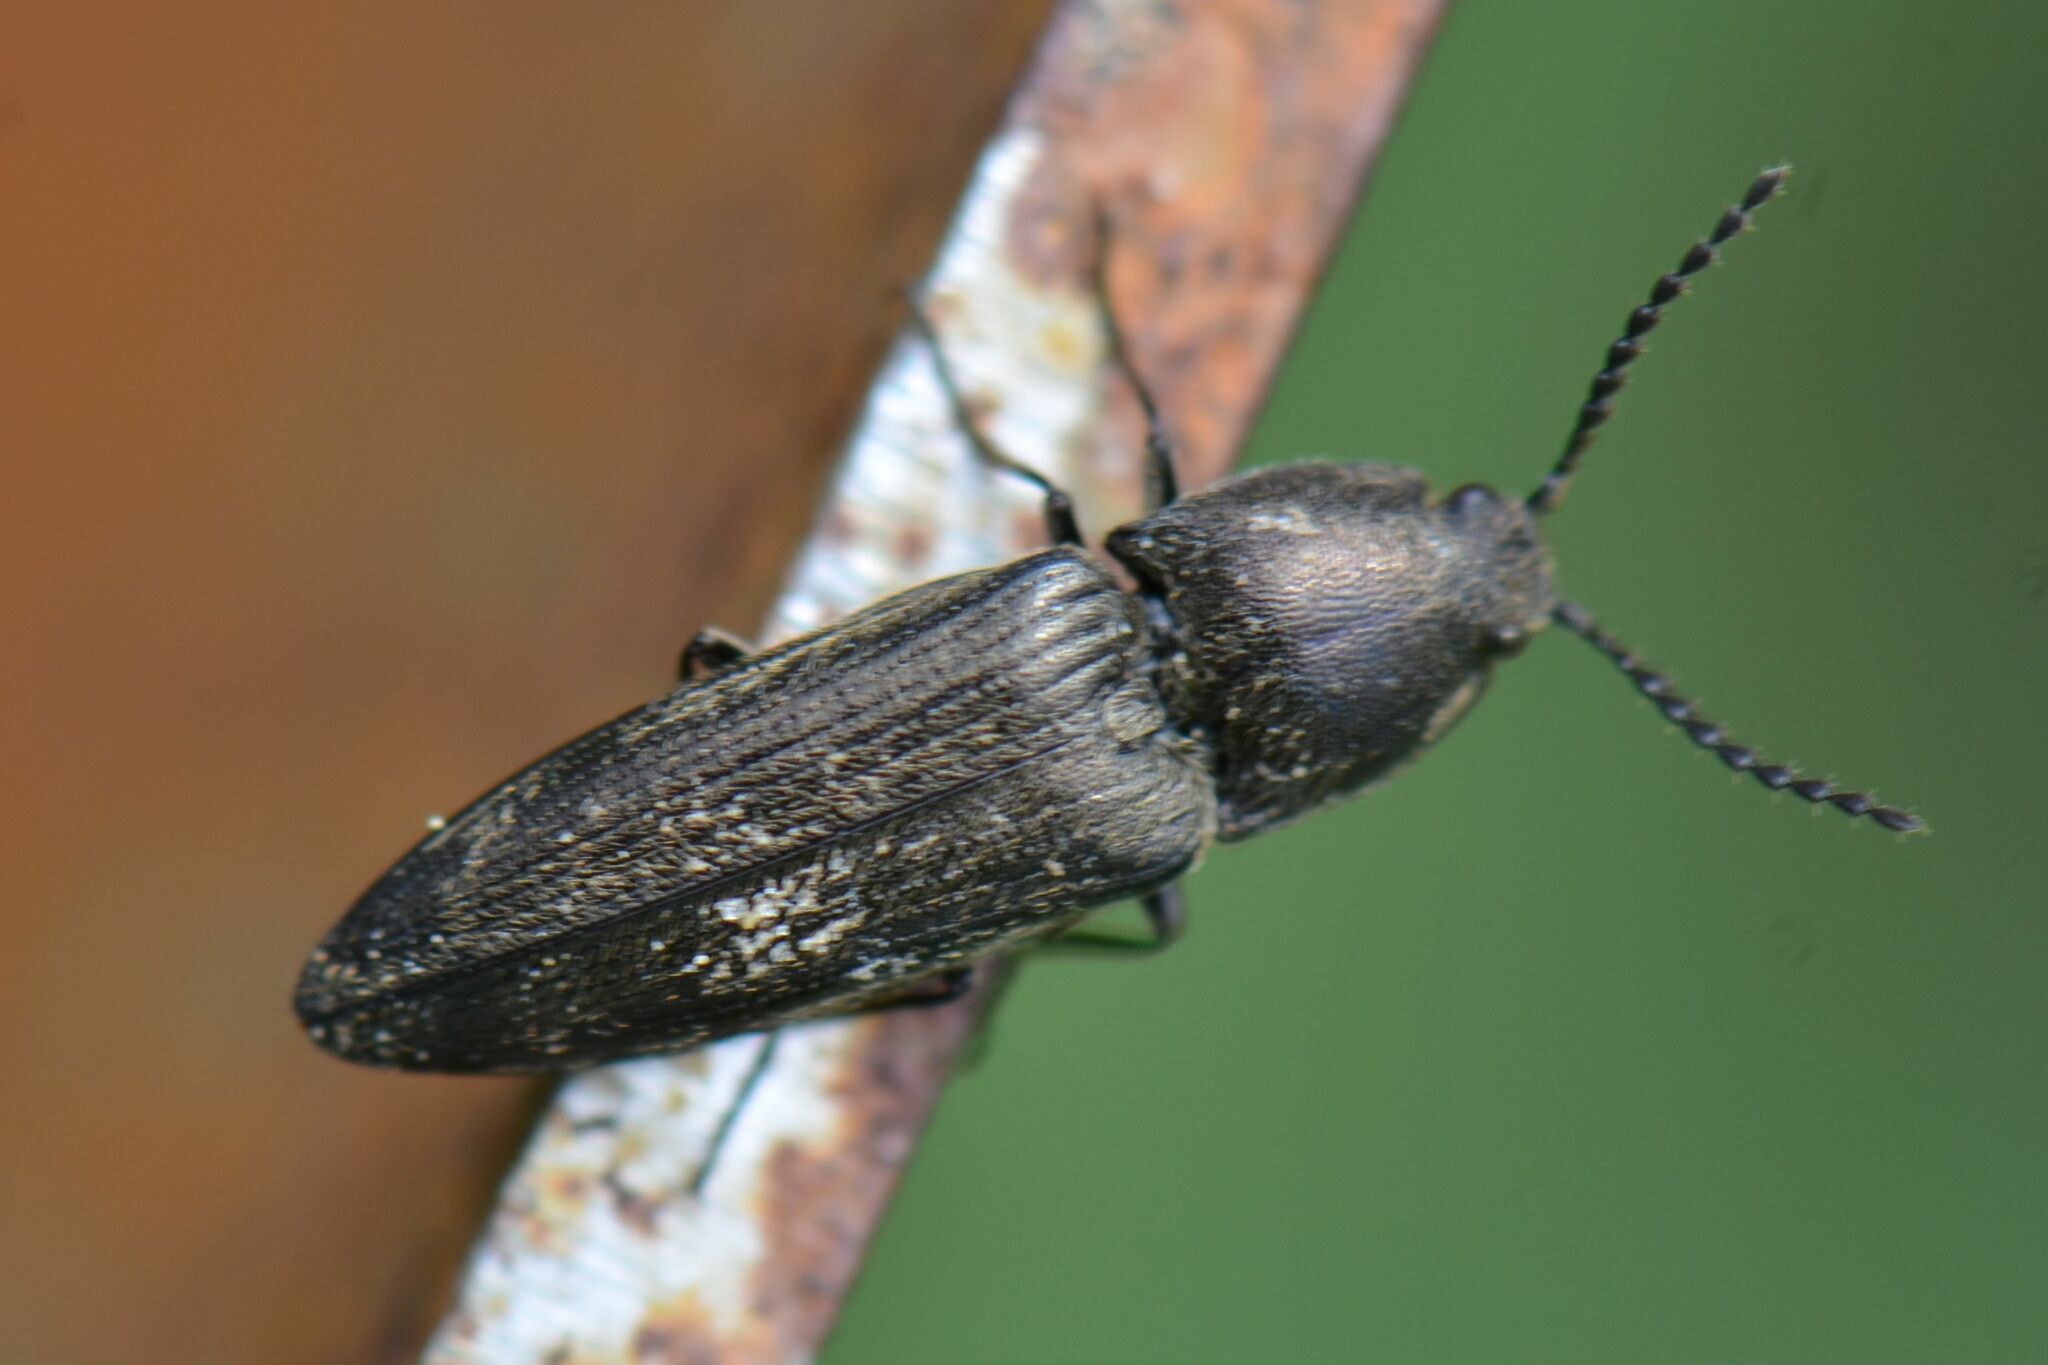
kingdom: Animalia
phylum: Arthropoda
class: Insecta
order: Coleoptera
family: Elateridae
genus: Cidnopus
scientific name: Cidnopus pilosus
